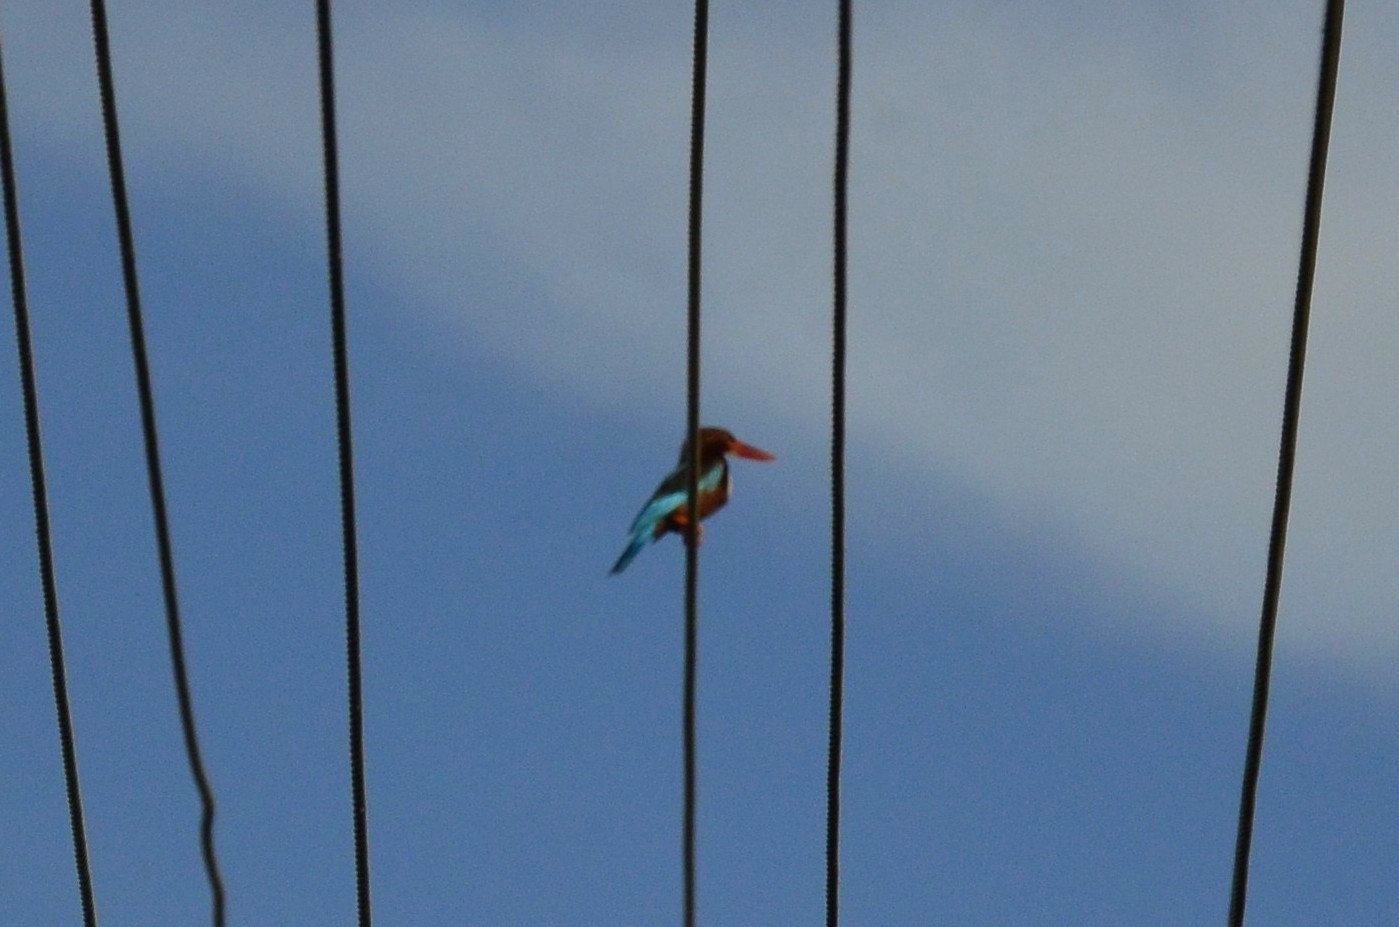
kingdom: Animalia
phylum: Chordata
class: Aves
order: Coraciiformes
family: Alcedinidae
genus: Halcyon
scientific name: Halcyon smyrnensis
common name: White-throated kingfisher
